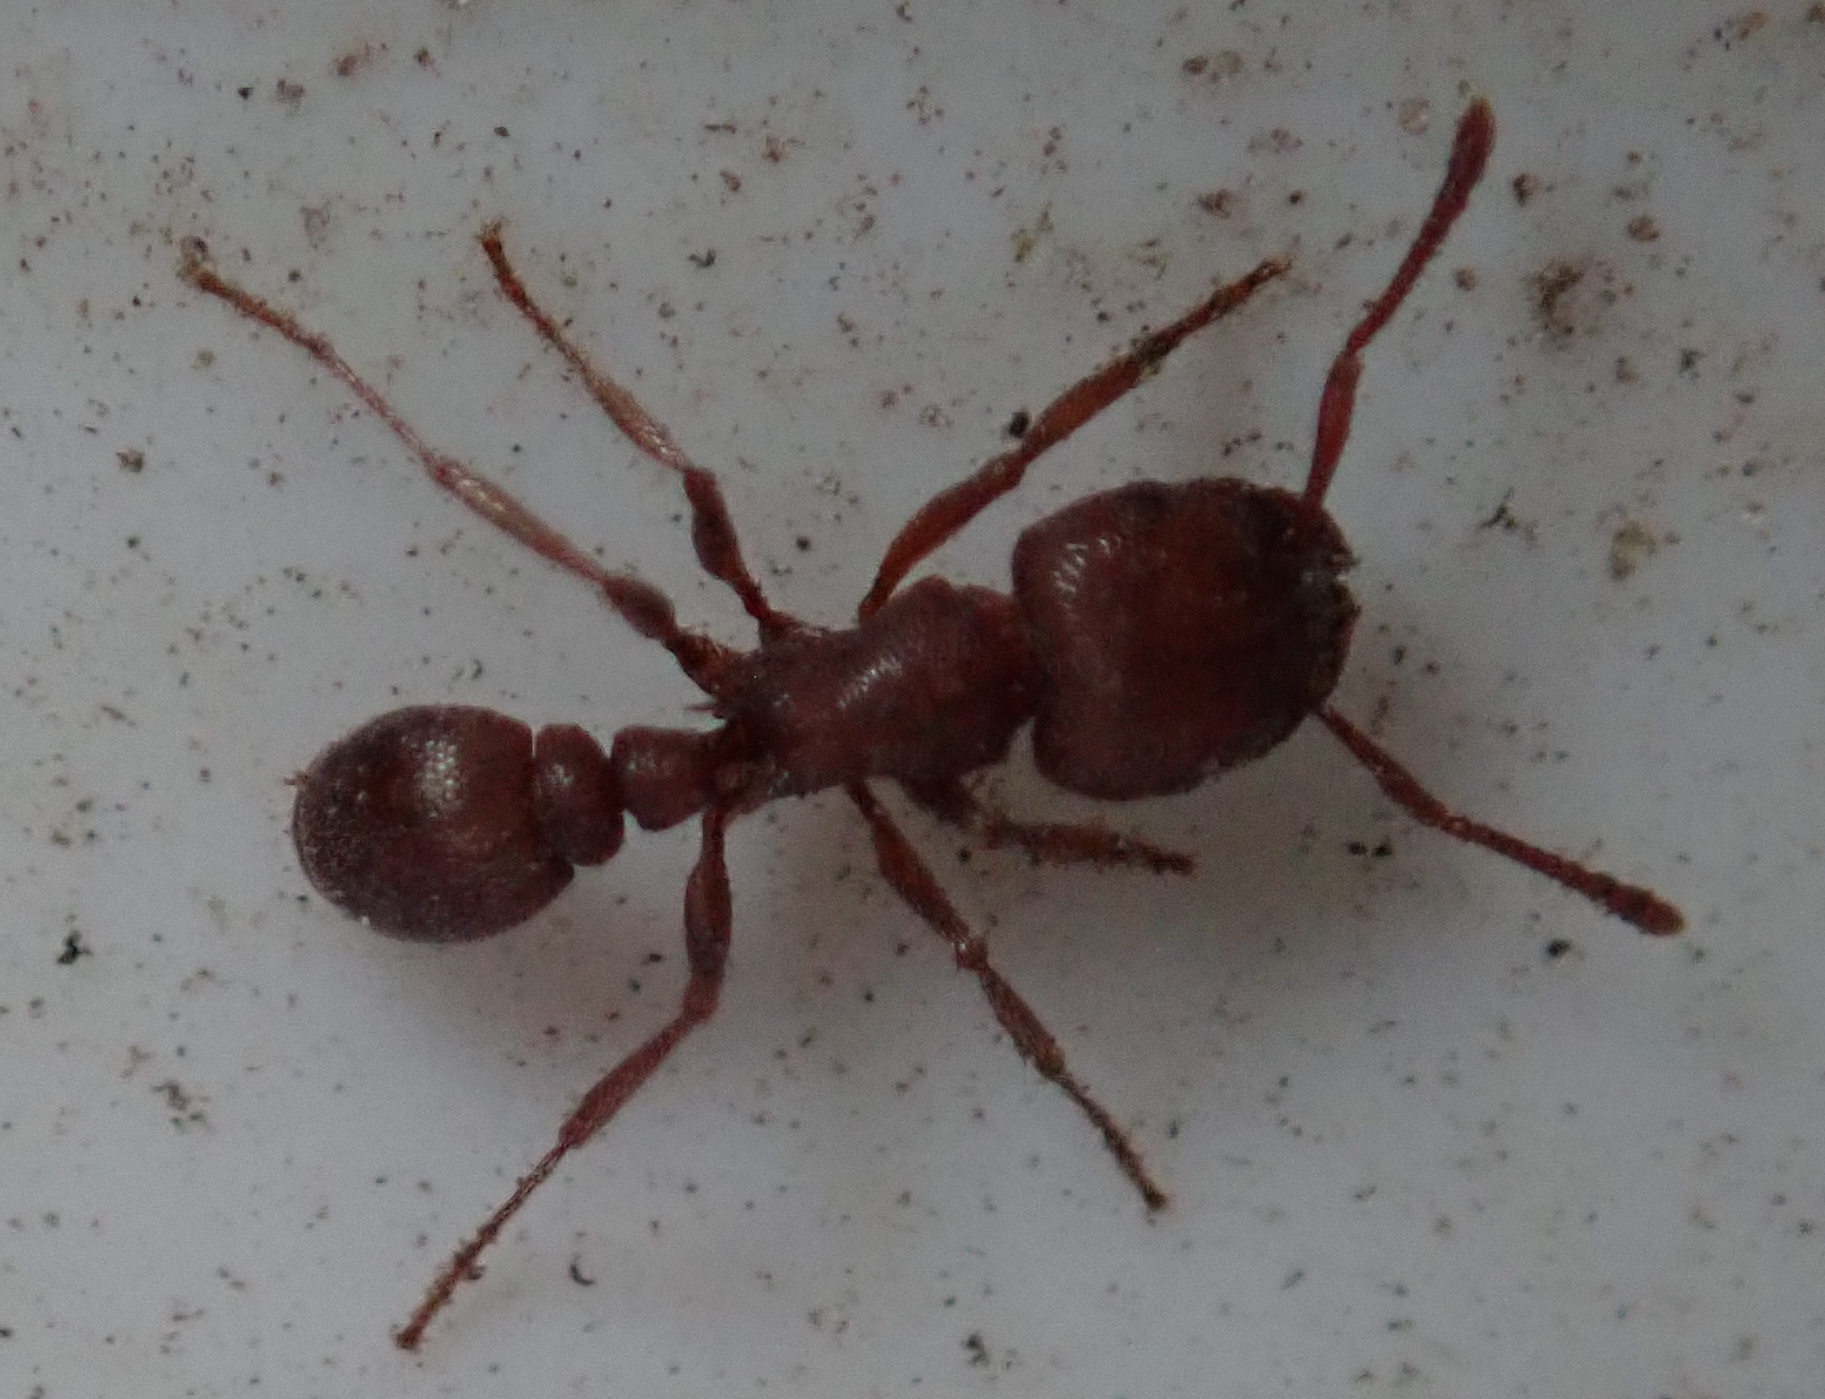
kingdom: Animalia
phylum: Arthropoda
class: Insecta
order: Hymenoptera
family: Formicidae
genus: Tetramorium
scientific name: Tetramorium setuliferum
